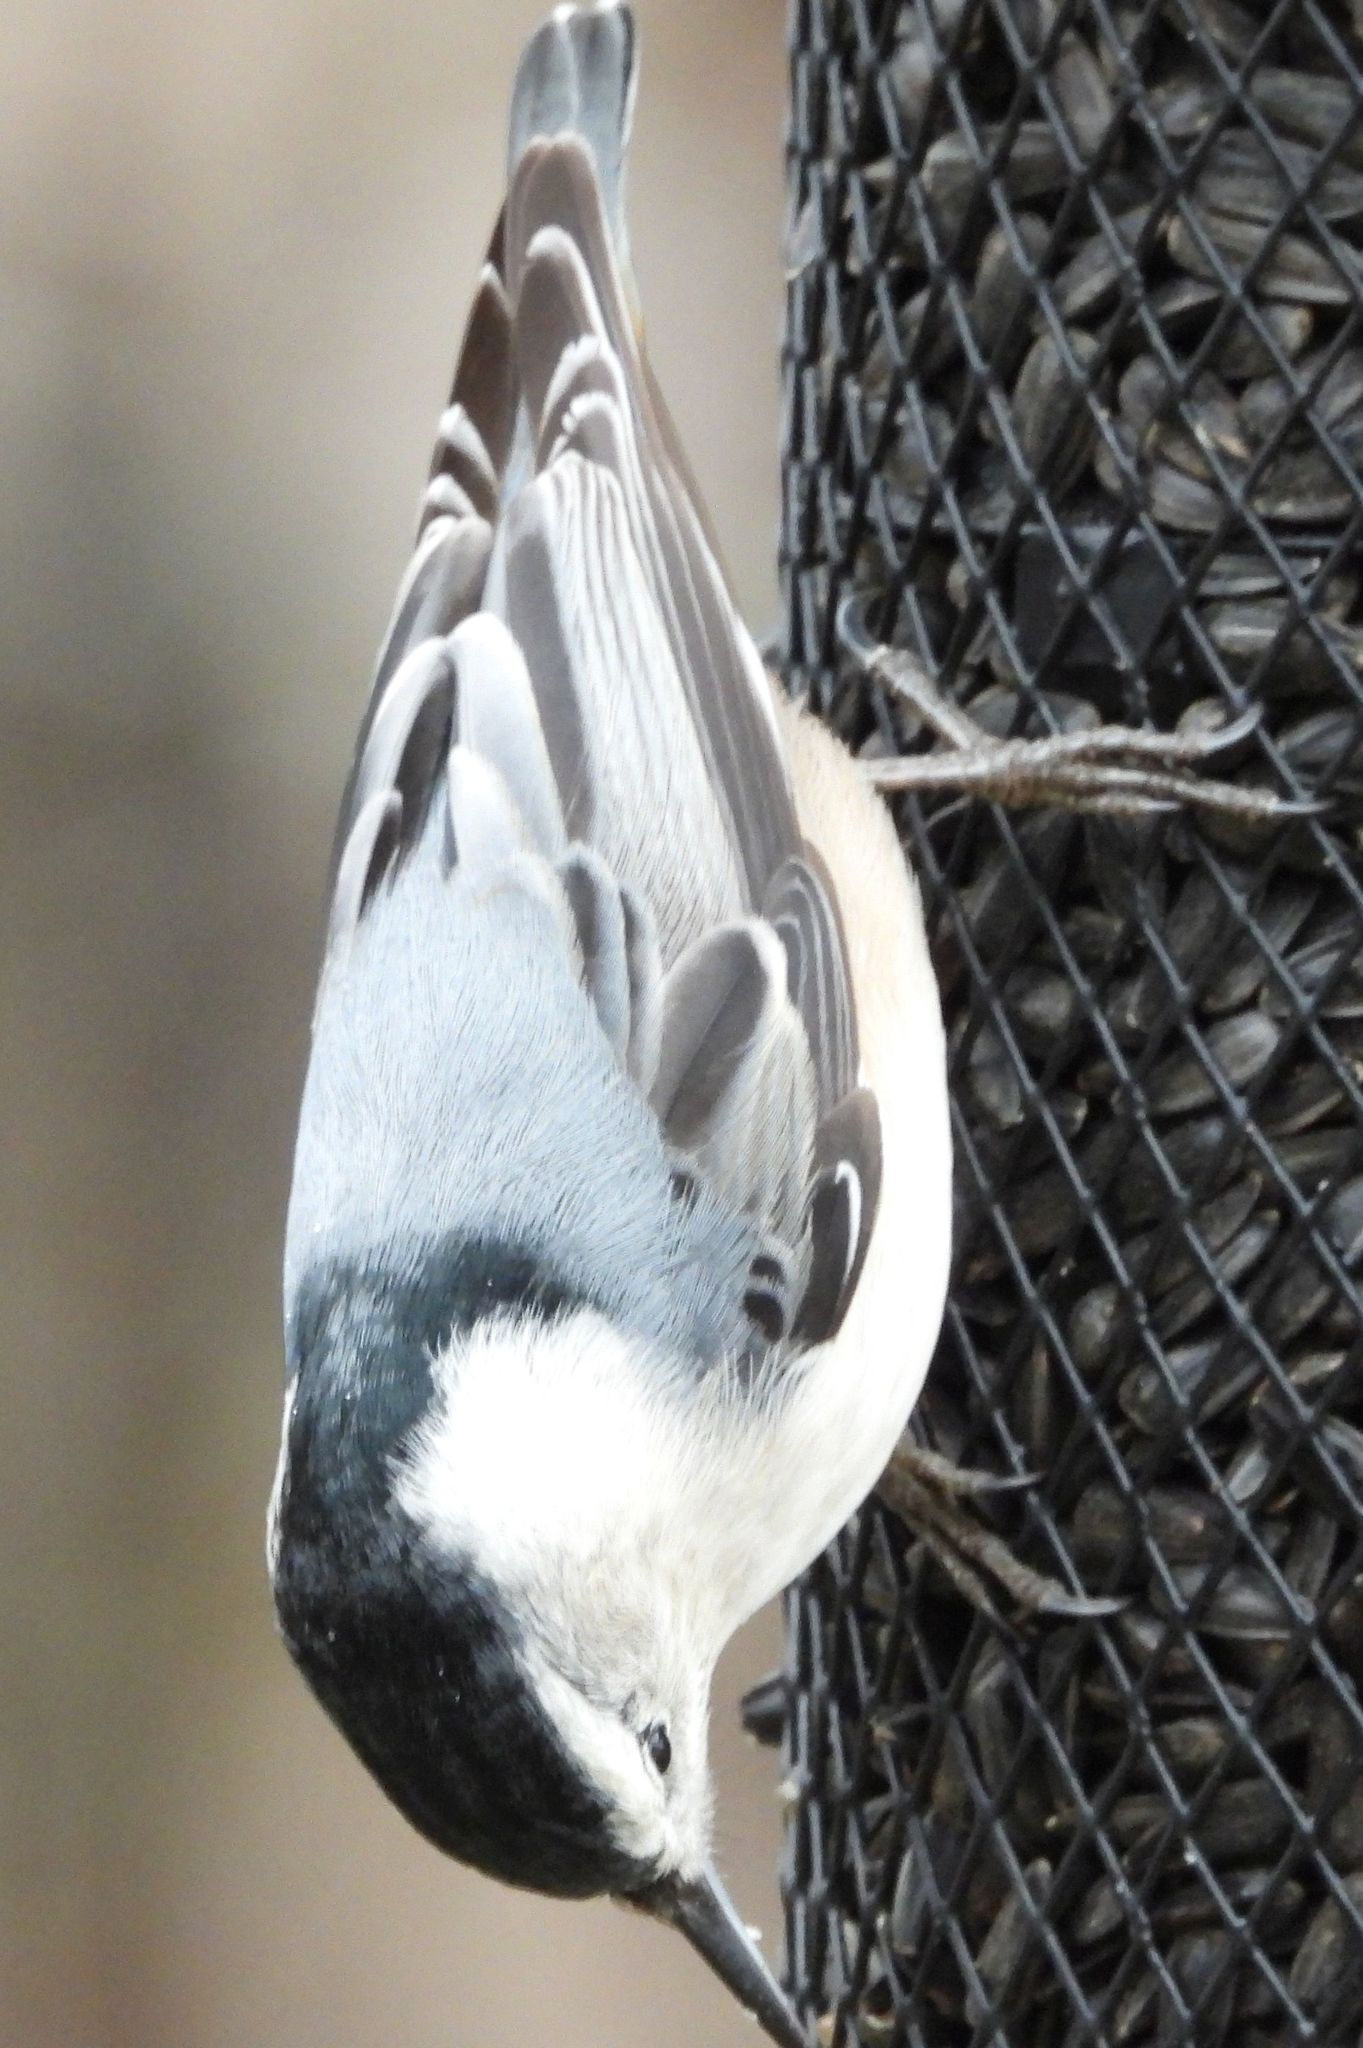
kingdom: Animalia
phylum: Chordata
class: Aves
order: Passeriformes
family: Sittidae
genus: Sitta
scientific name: Sitta carolinensis
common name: White-breasted nuthatch
